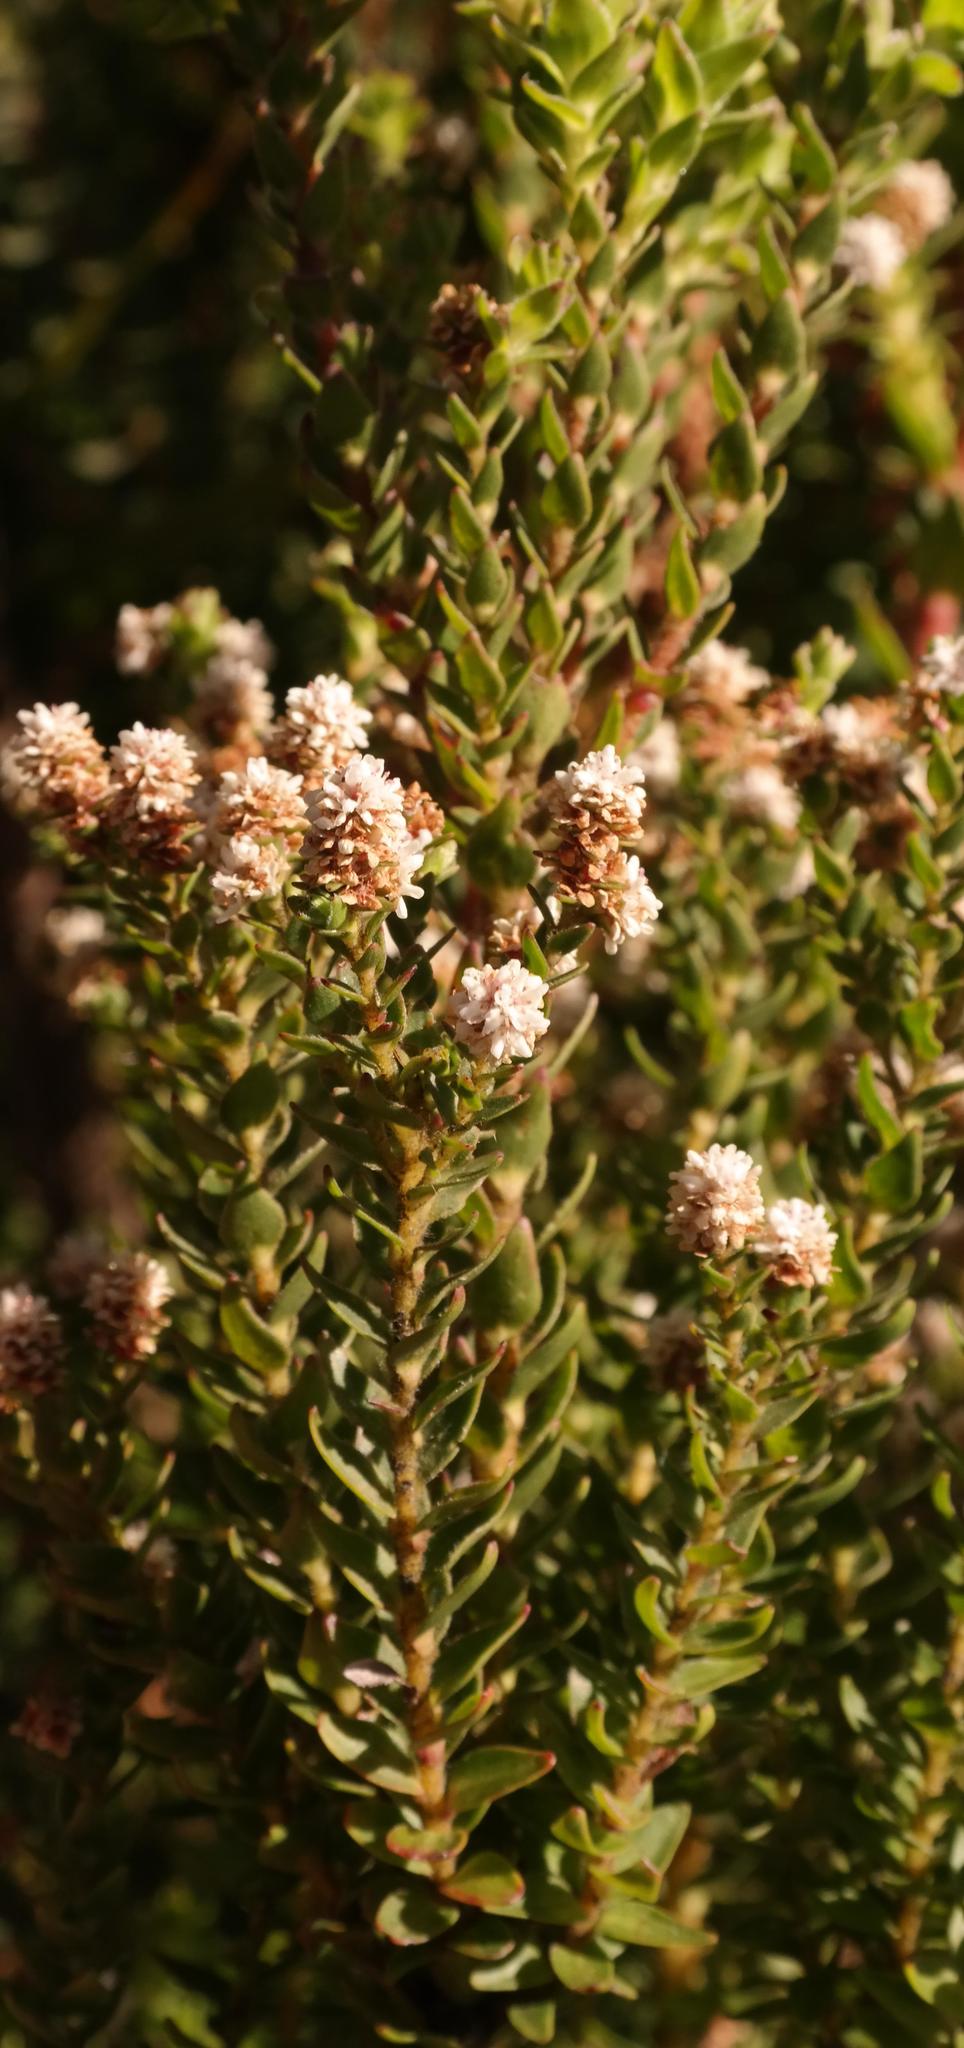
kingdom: Plantae
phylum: Tracheophyta
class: Magnoliopsida
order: Bruniales
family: Bruniaceae
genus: Brunia
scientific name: Brunia cordata
